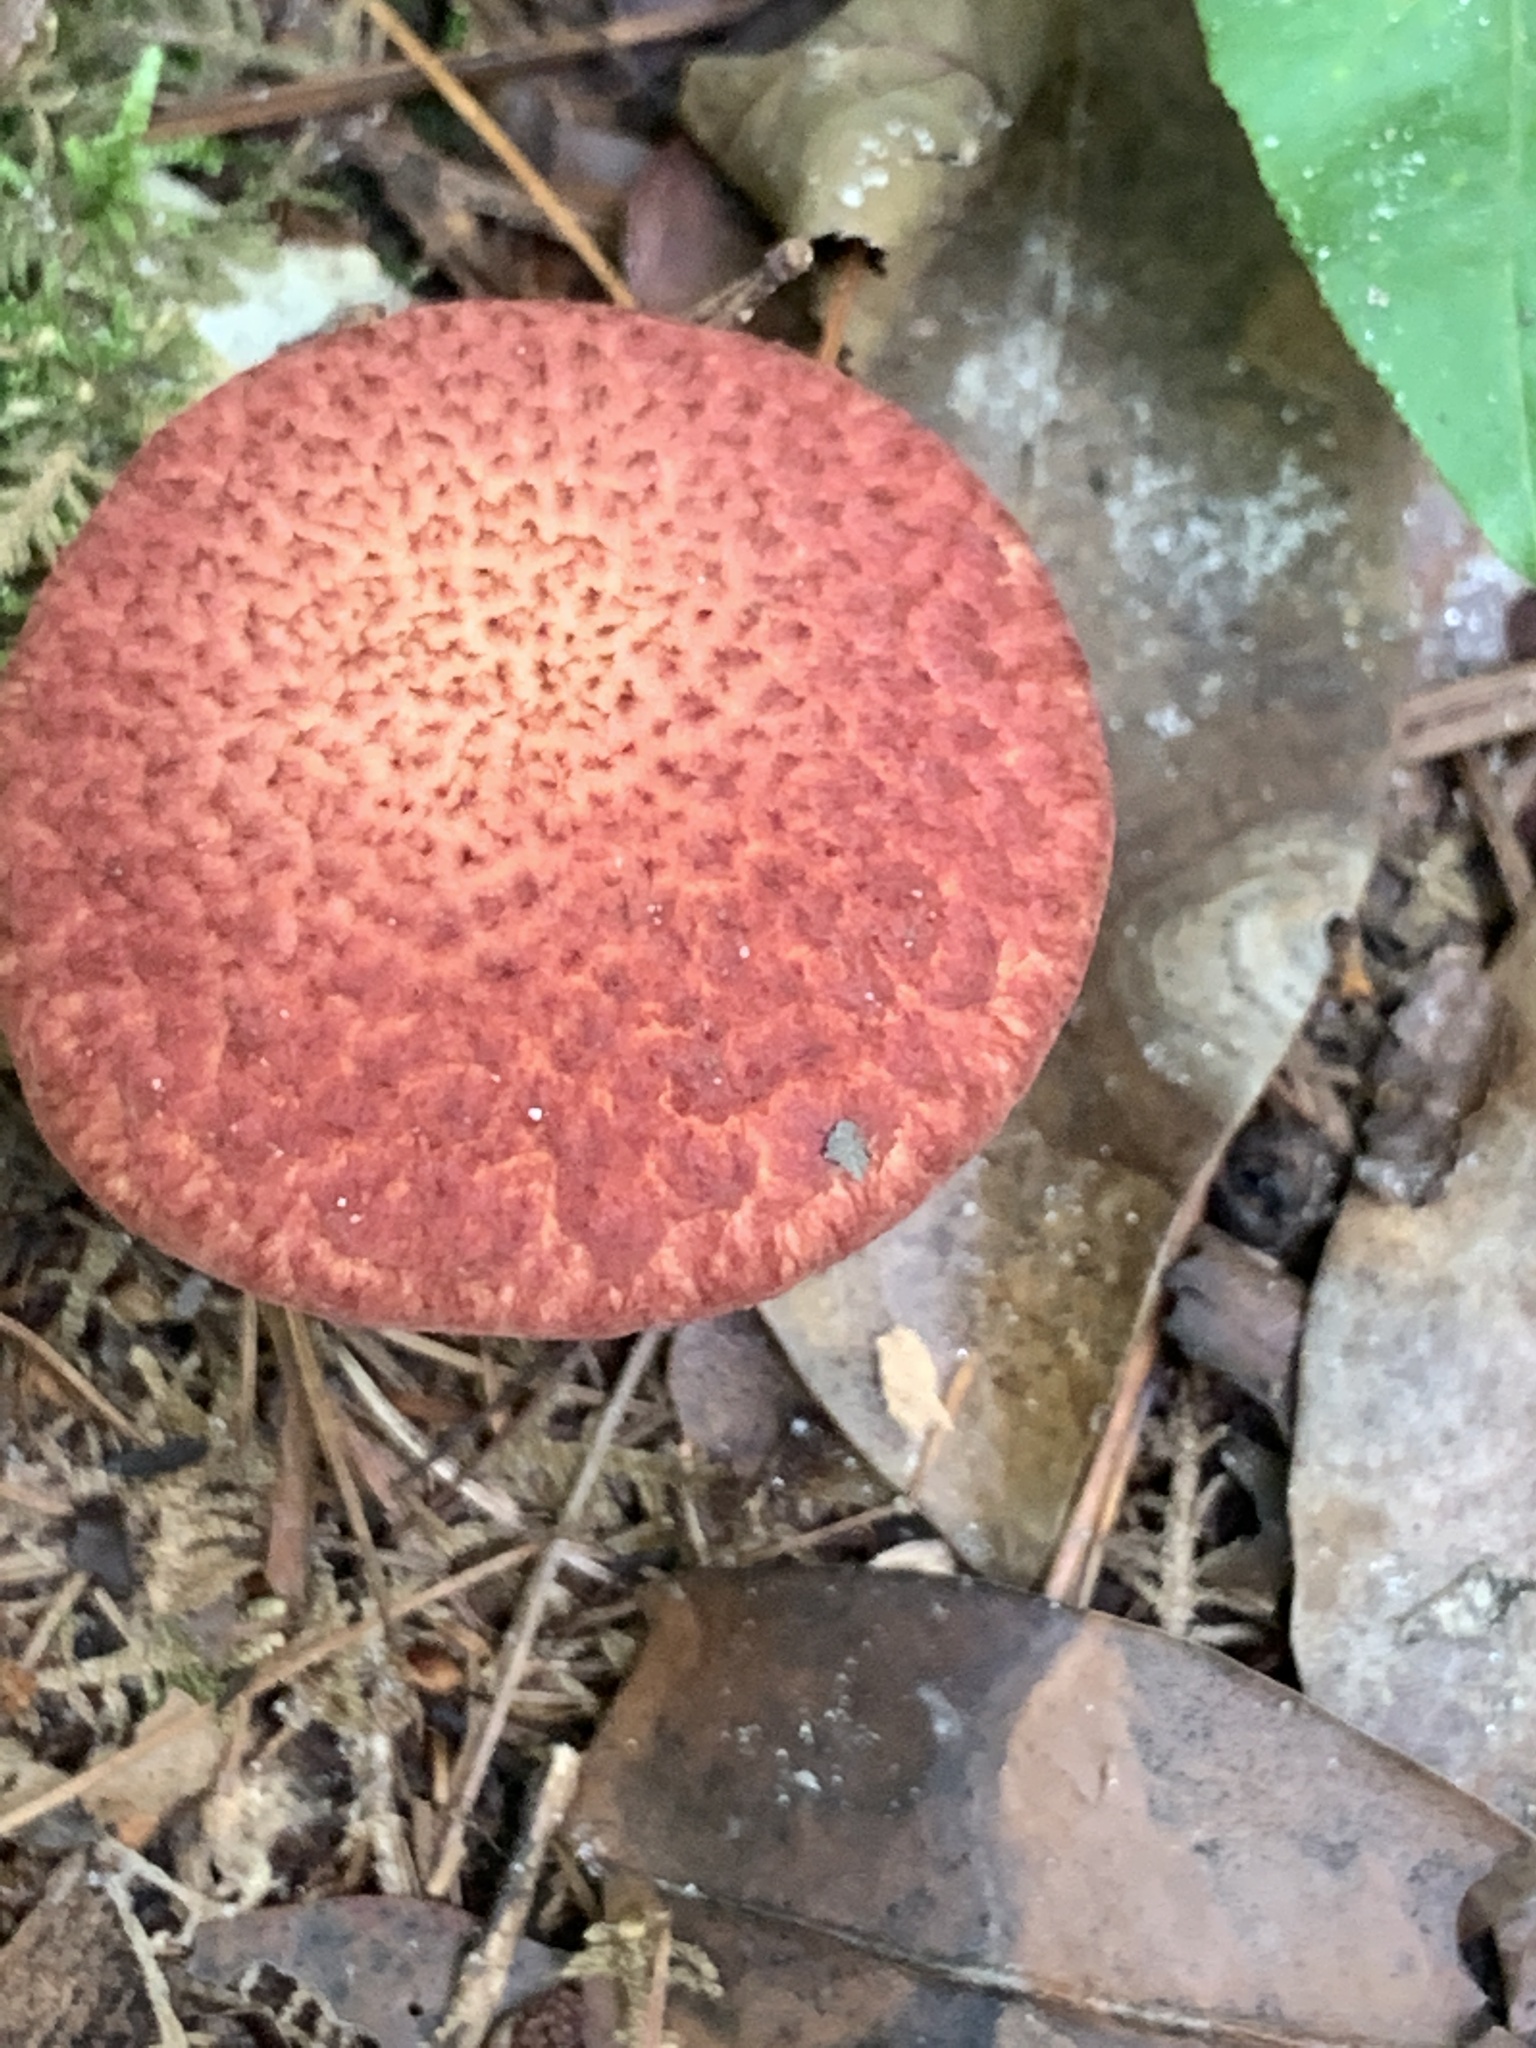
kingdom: Fungi
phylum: Basidiomycota
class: Agaricomycetes
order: Boletales
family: Suillaceae
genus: Suillus
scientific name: Suillus spraguei
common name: Painted suillus
